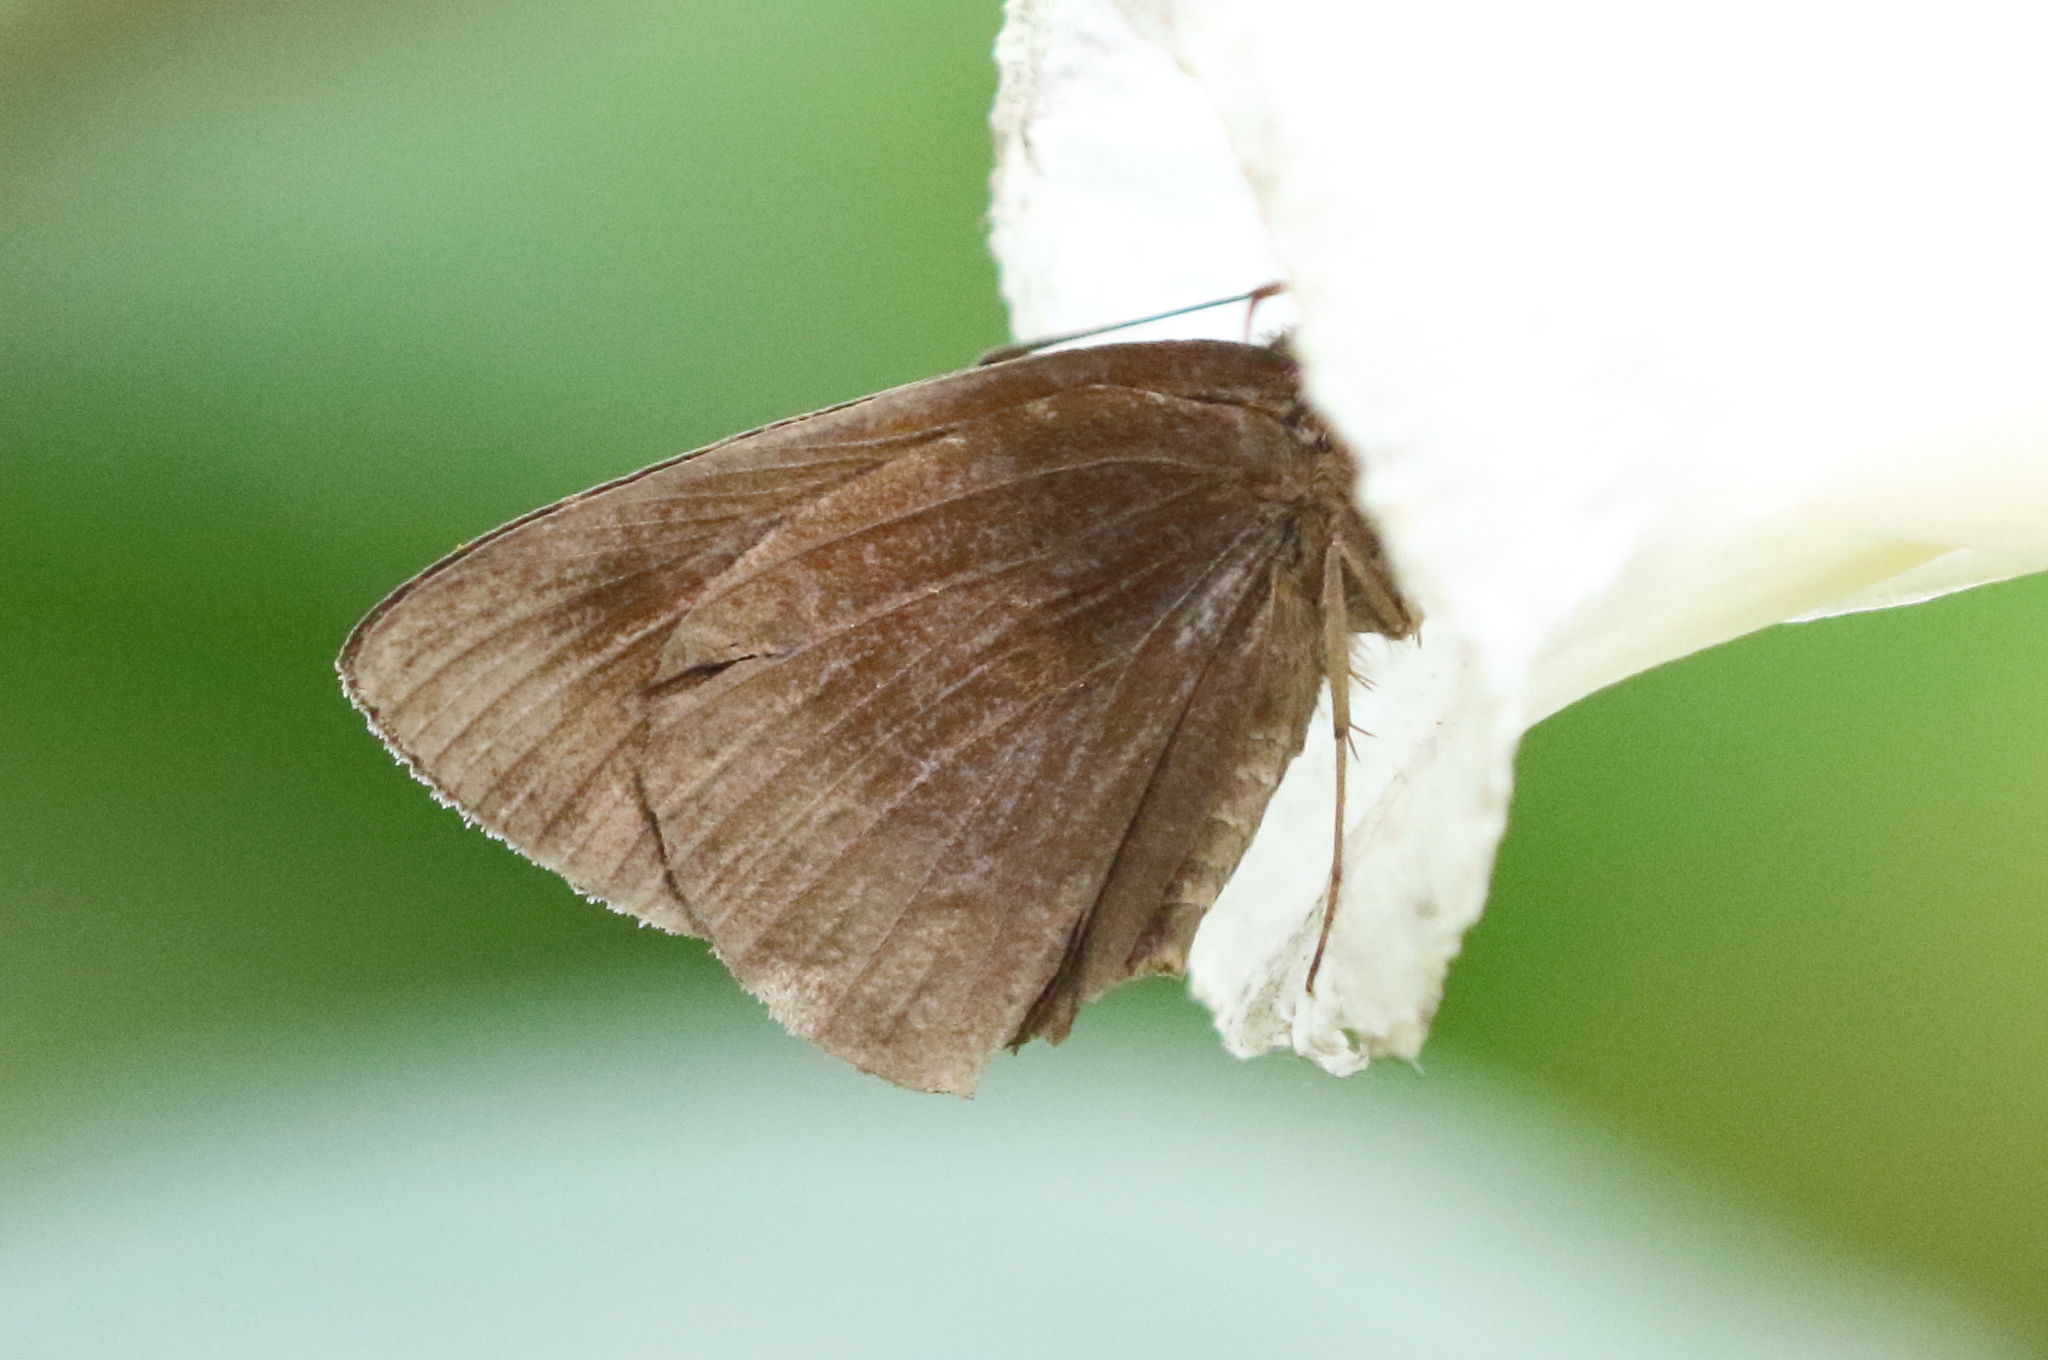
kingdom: Animalia
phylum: Arthropoda
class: Insecta
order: Lepidoptera
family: Hesperiidae
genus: Ancistroides
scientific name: Ancistroides nigrita
